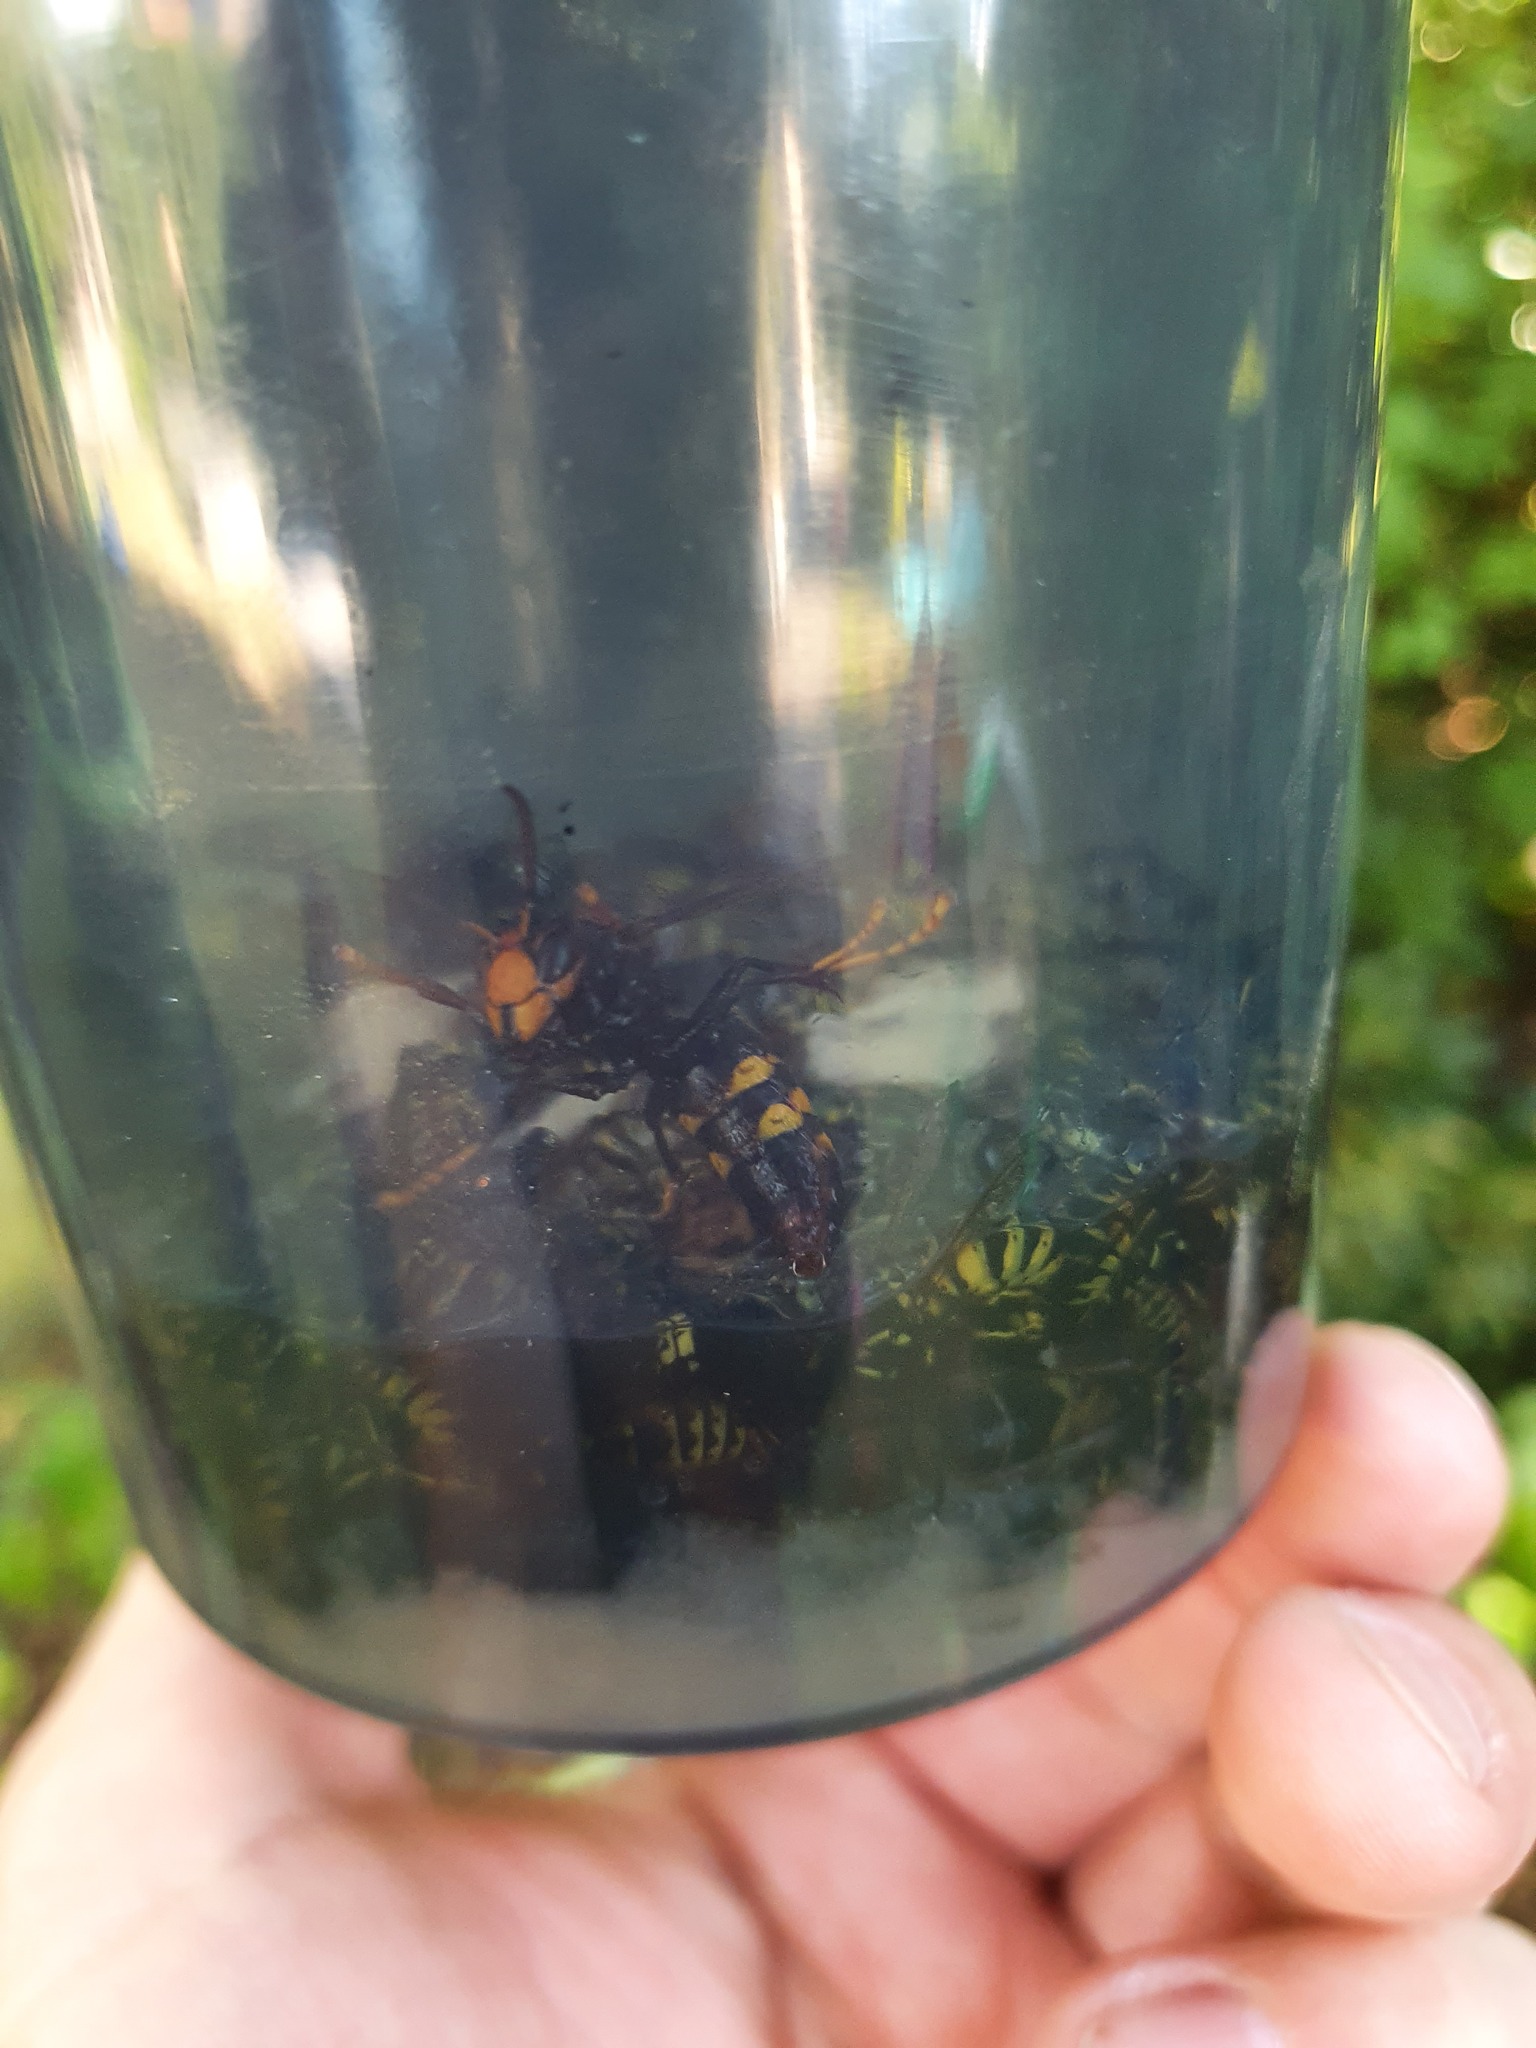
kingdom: Animalia
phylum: Arthropoda
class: Insecta
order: Hymenoptera
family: Vespidae
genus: Vespa
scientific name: Vespa velutina
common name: Asian hornet
